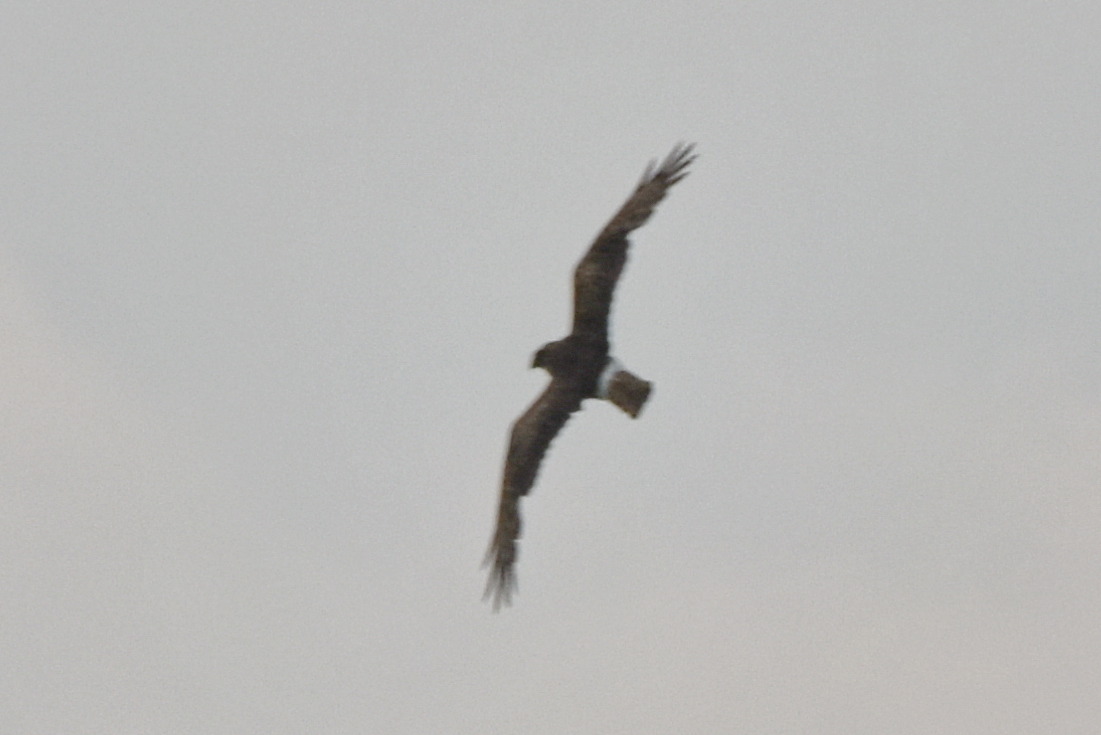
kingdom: Animalia
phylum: Chordata
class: Aves
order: Accipitriformes
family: Accipitridae
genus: Circus
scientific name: Circus cyaneus
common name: Hen harrier
